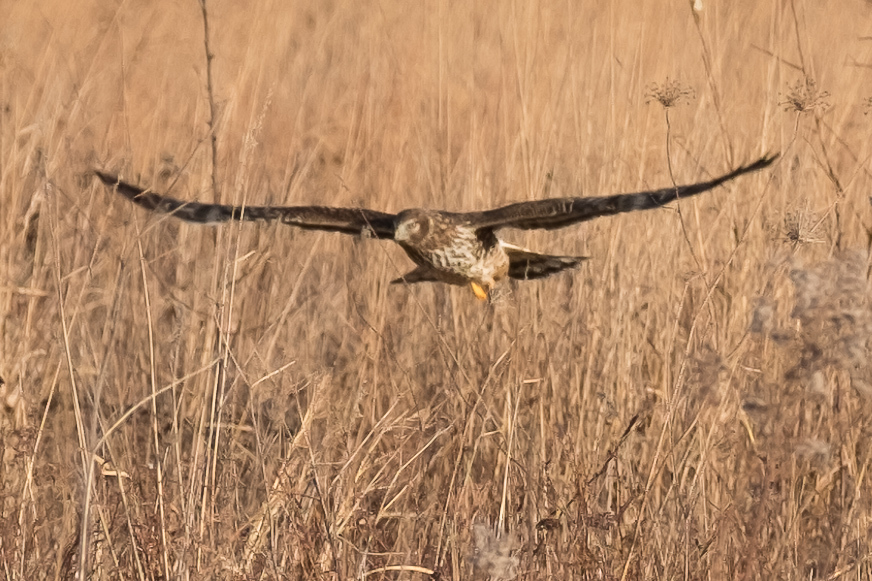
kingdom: Animalia
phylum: Chordata
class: Aves
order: Accipitriformes
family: Accipitridae
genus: Circus
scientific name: Circus cyaneus
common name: Hen harrier
